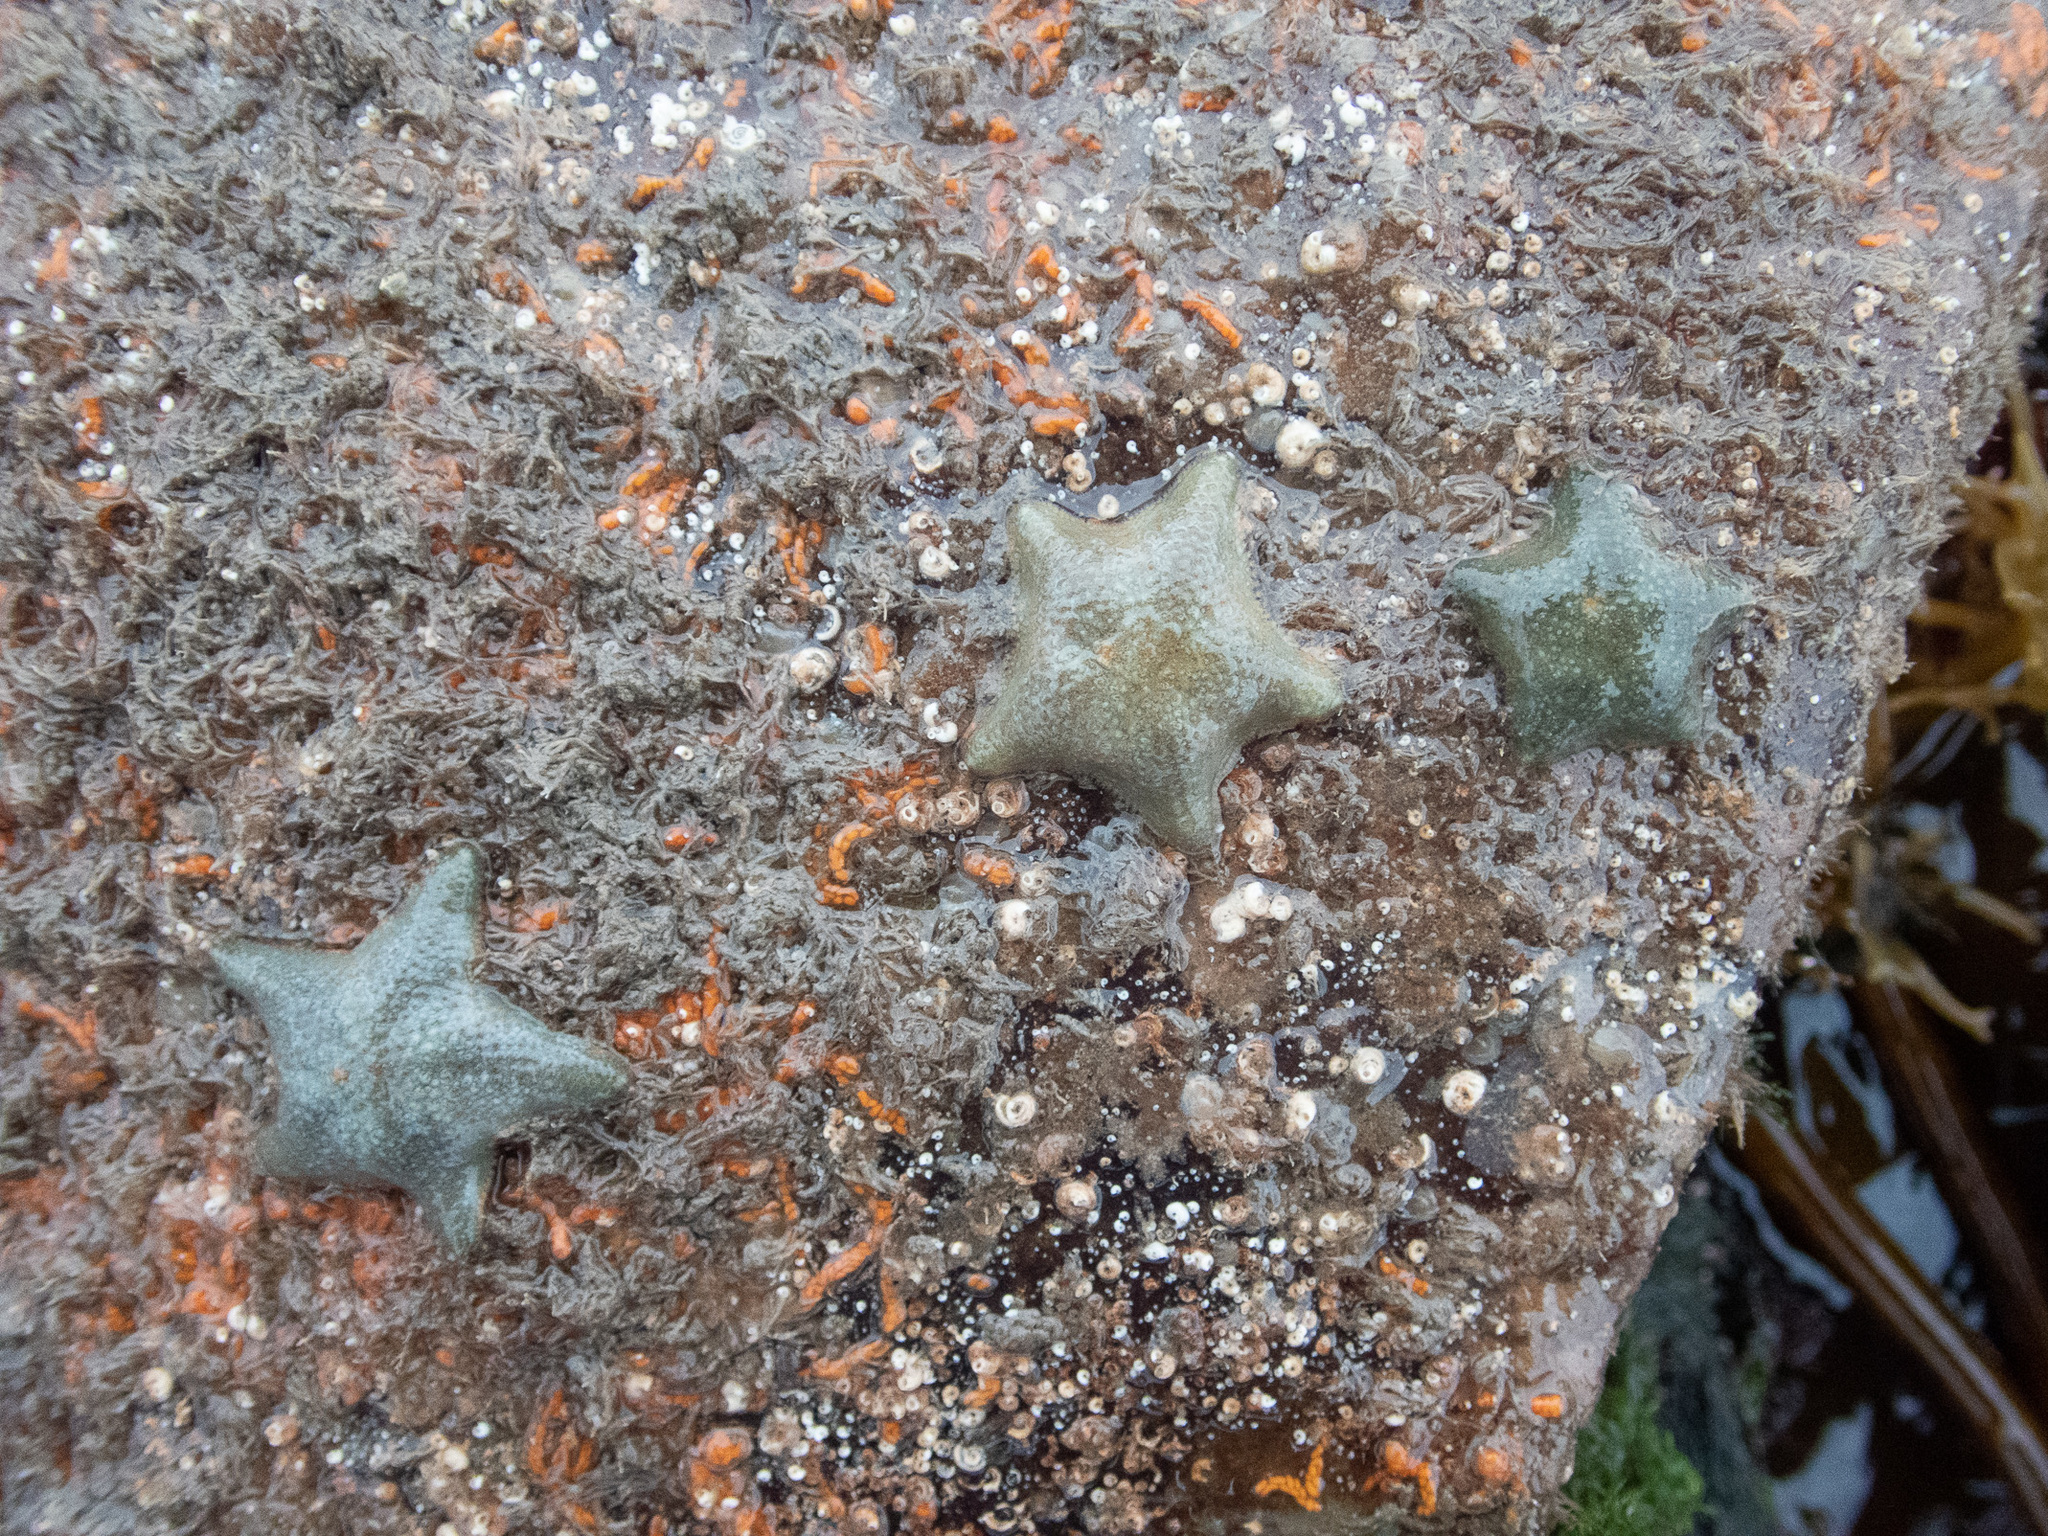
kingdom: Animalia
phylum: Echinodermata
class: Asteroidea
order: Valvatida
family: Asterinidae
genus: Asterina
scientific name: Asterina gibbosa
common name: Cushion star
